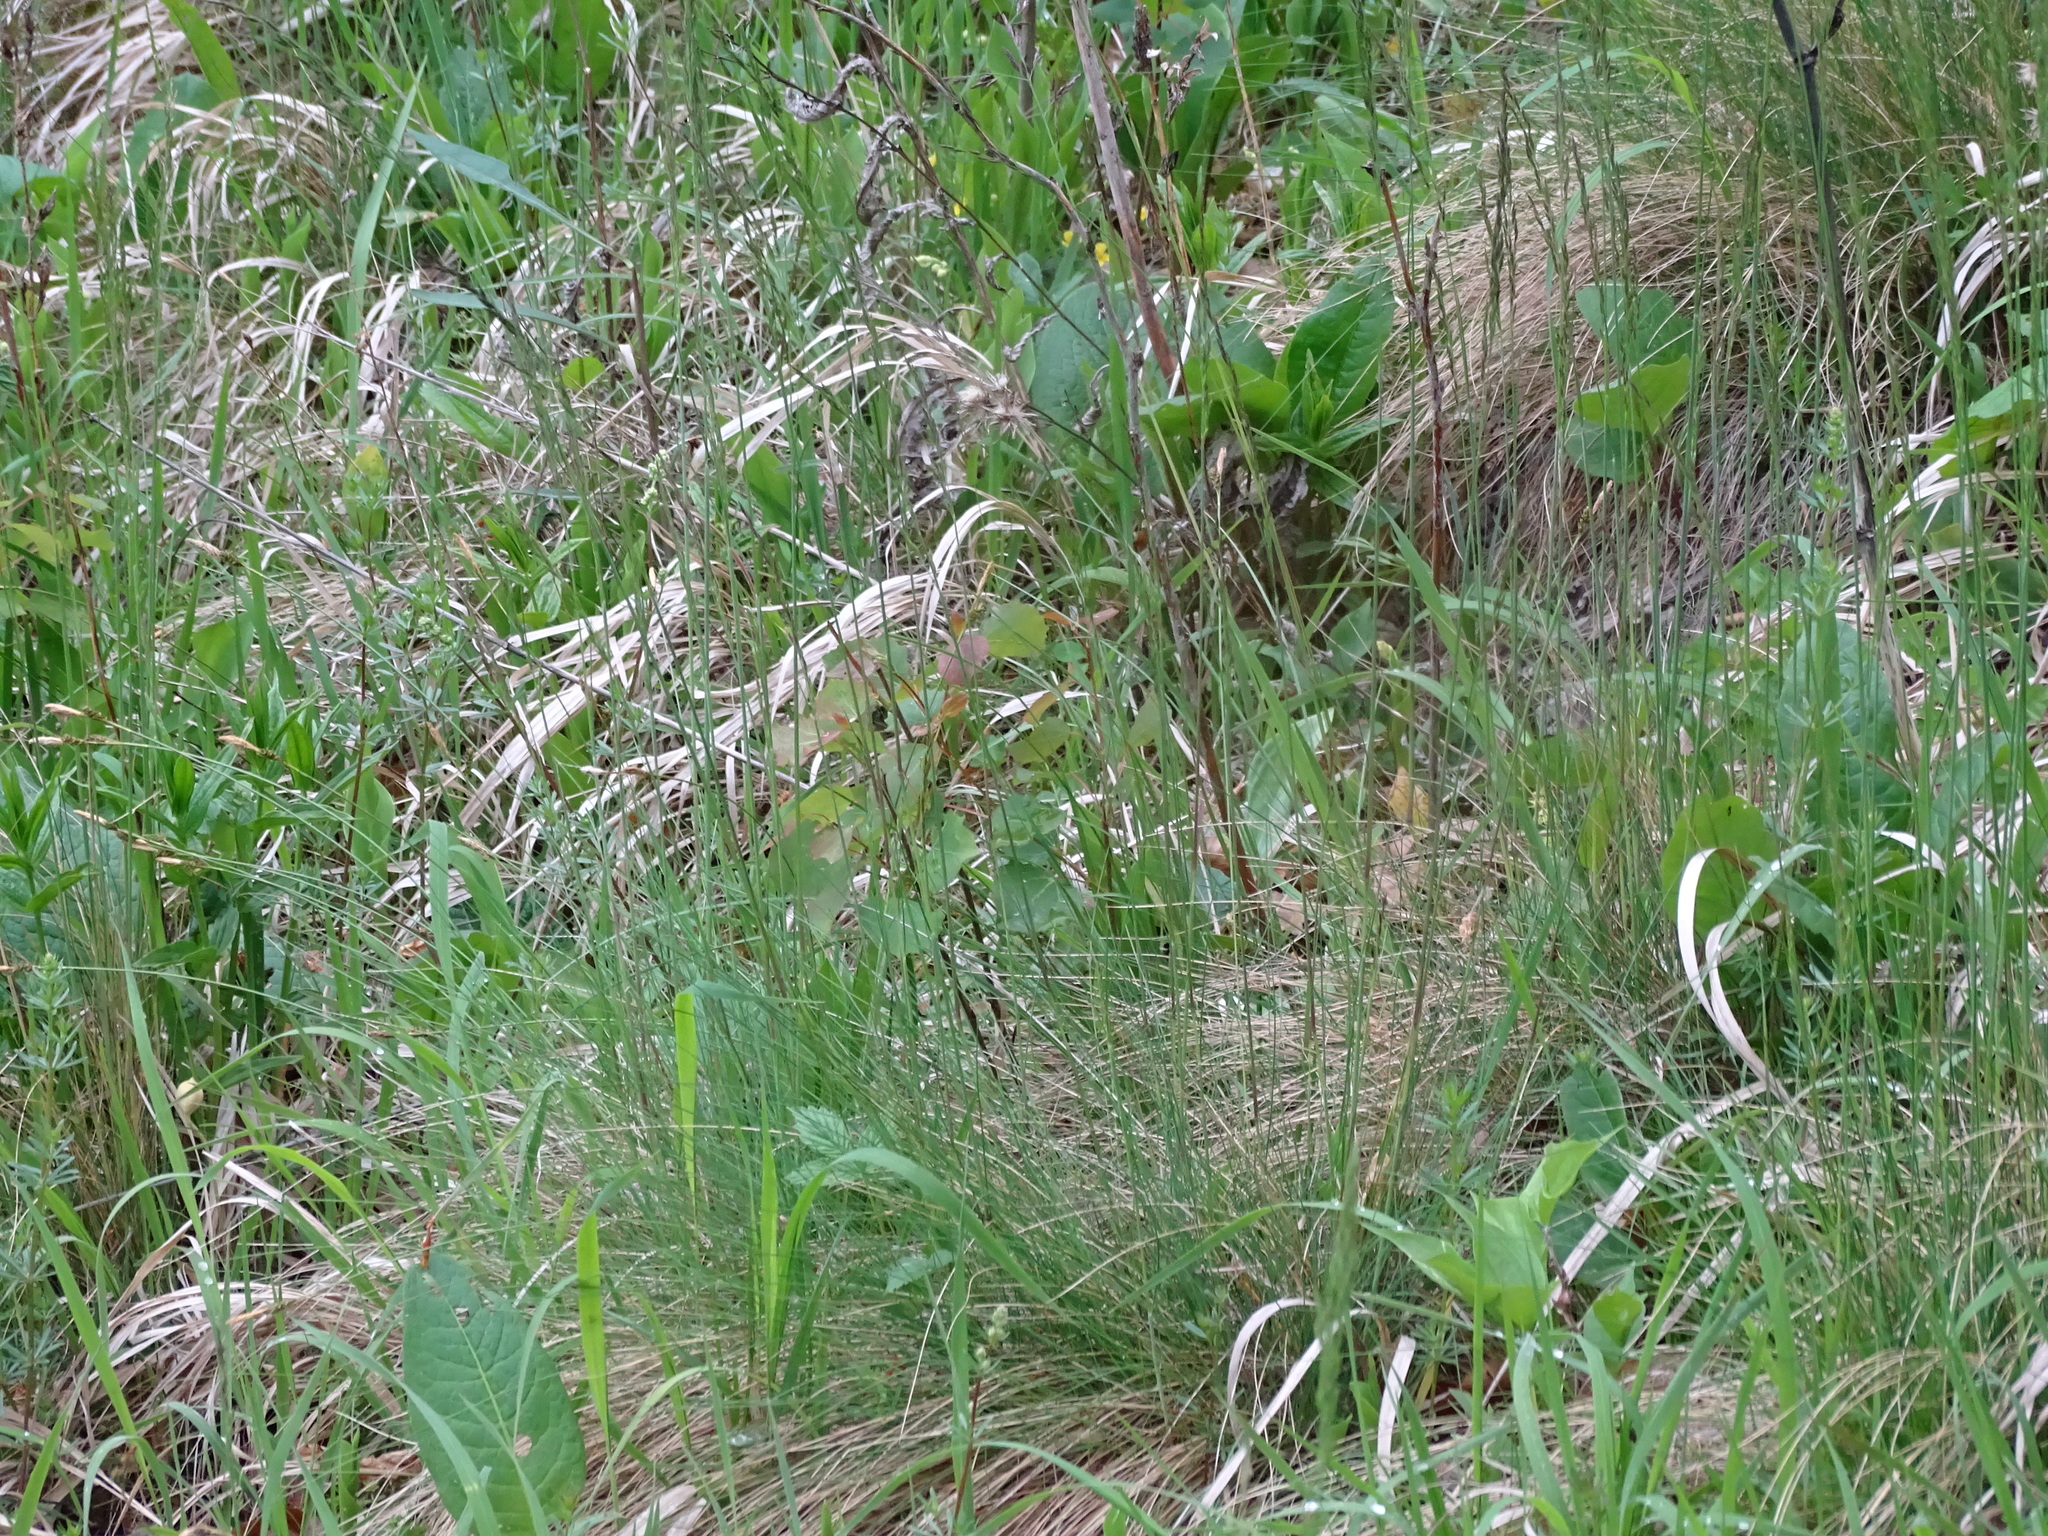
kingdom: Plantae
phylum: Tracheophyta
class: Liliopsida
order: Poales
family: Poaceae
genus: Festuca
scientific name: Festuca amethystina
